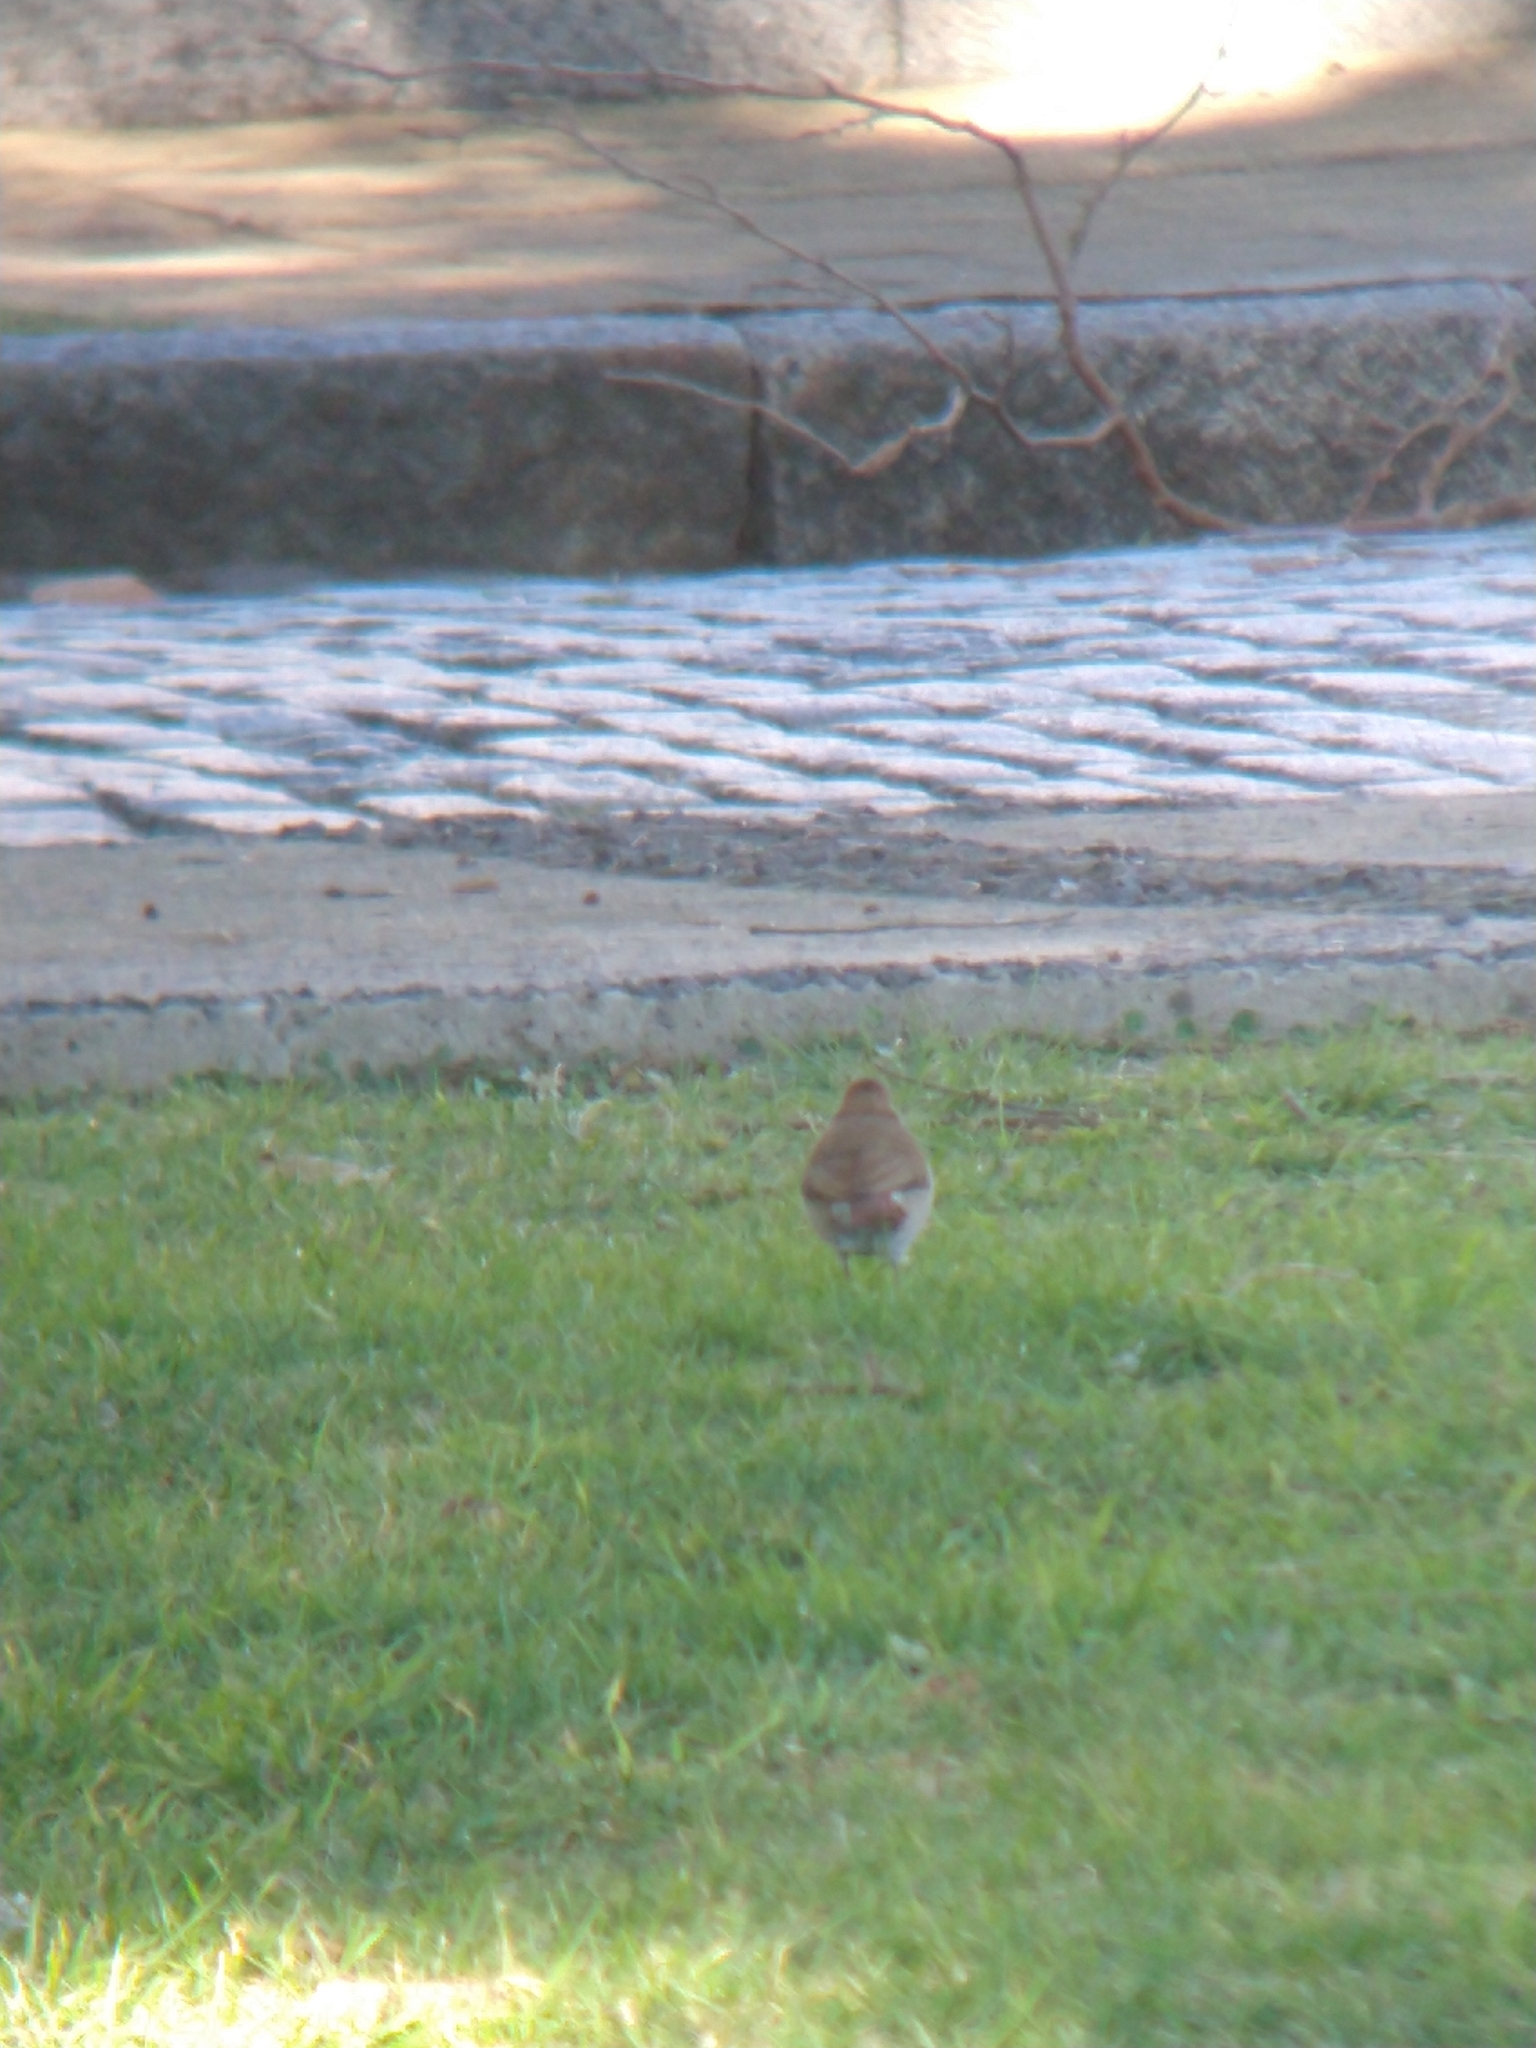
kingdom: Animalia
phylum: Chordata
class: Aves
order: Passeriformes
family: Furnariidae
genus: Furnarius
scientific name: Furnarius rufus
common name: Rufous hornero
